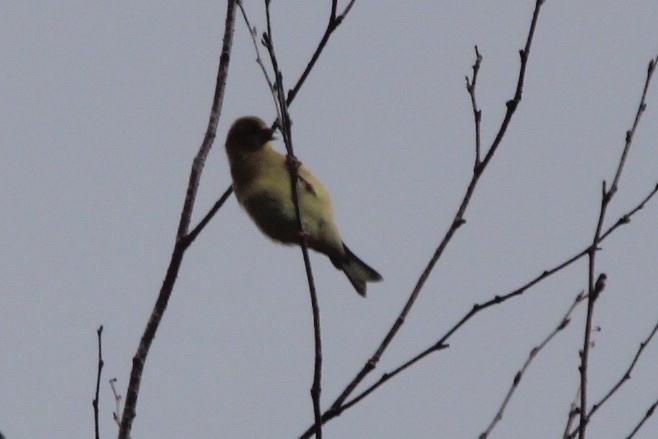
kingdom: Animalia
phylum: Chordata
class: Aves
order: Passeriformes
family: Fringillidae
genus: Spinus
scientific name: Spinus tristis
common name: American goldfinch
